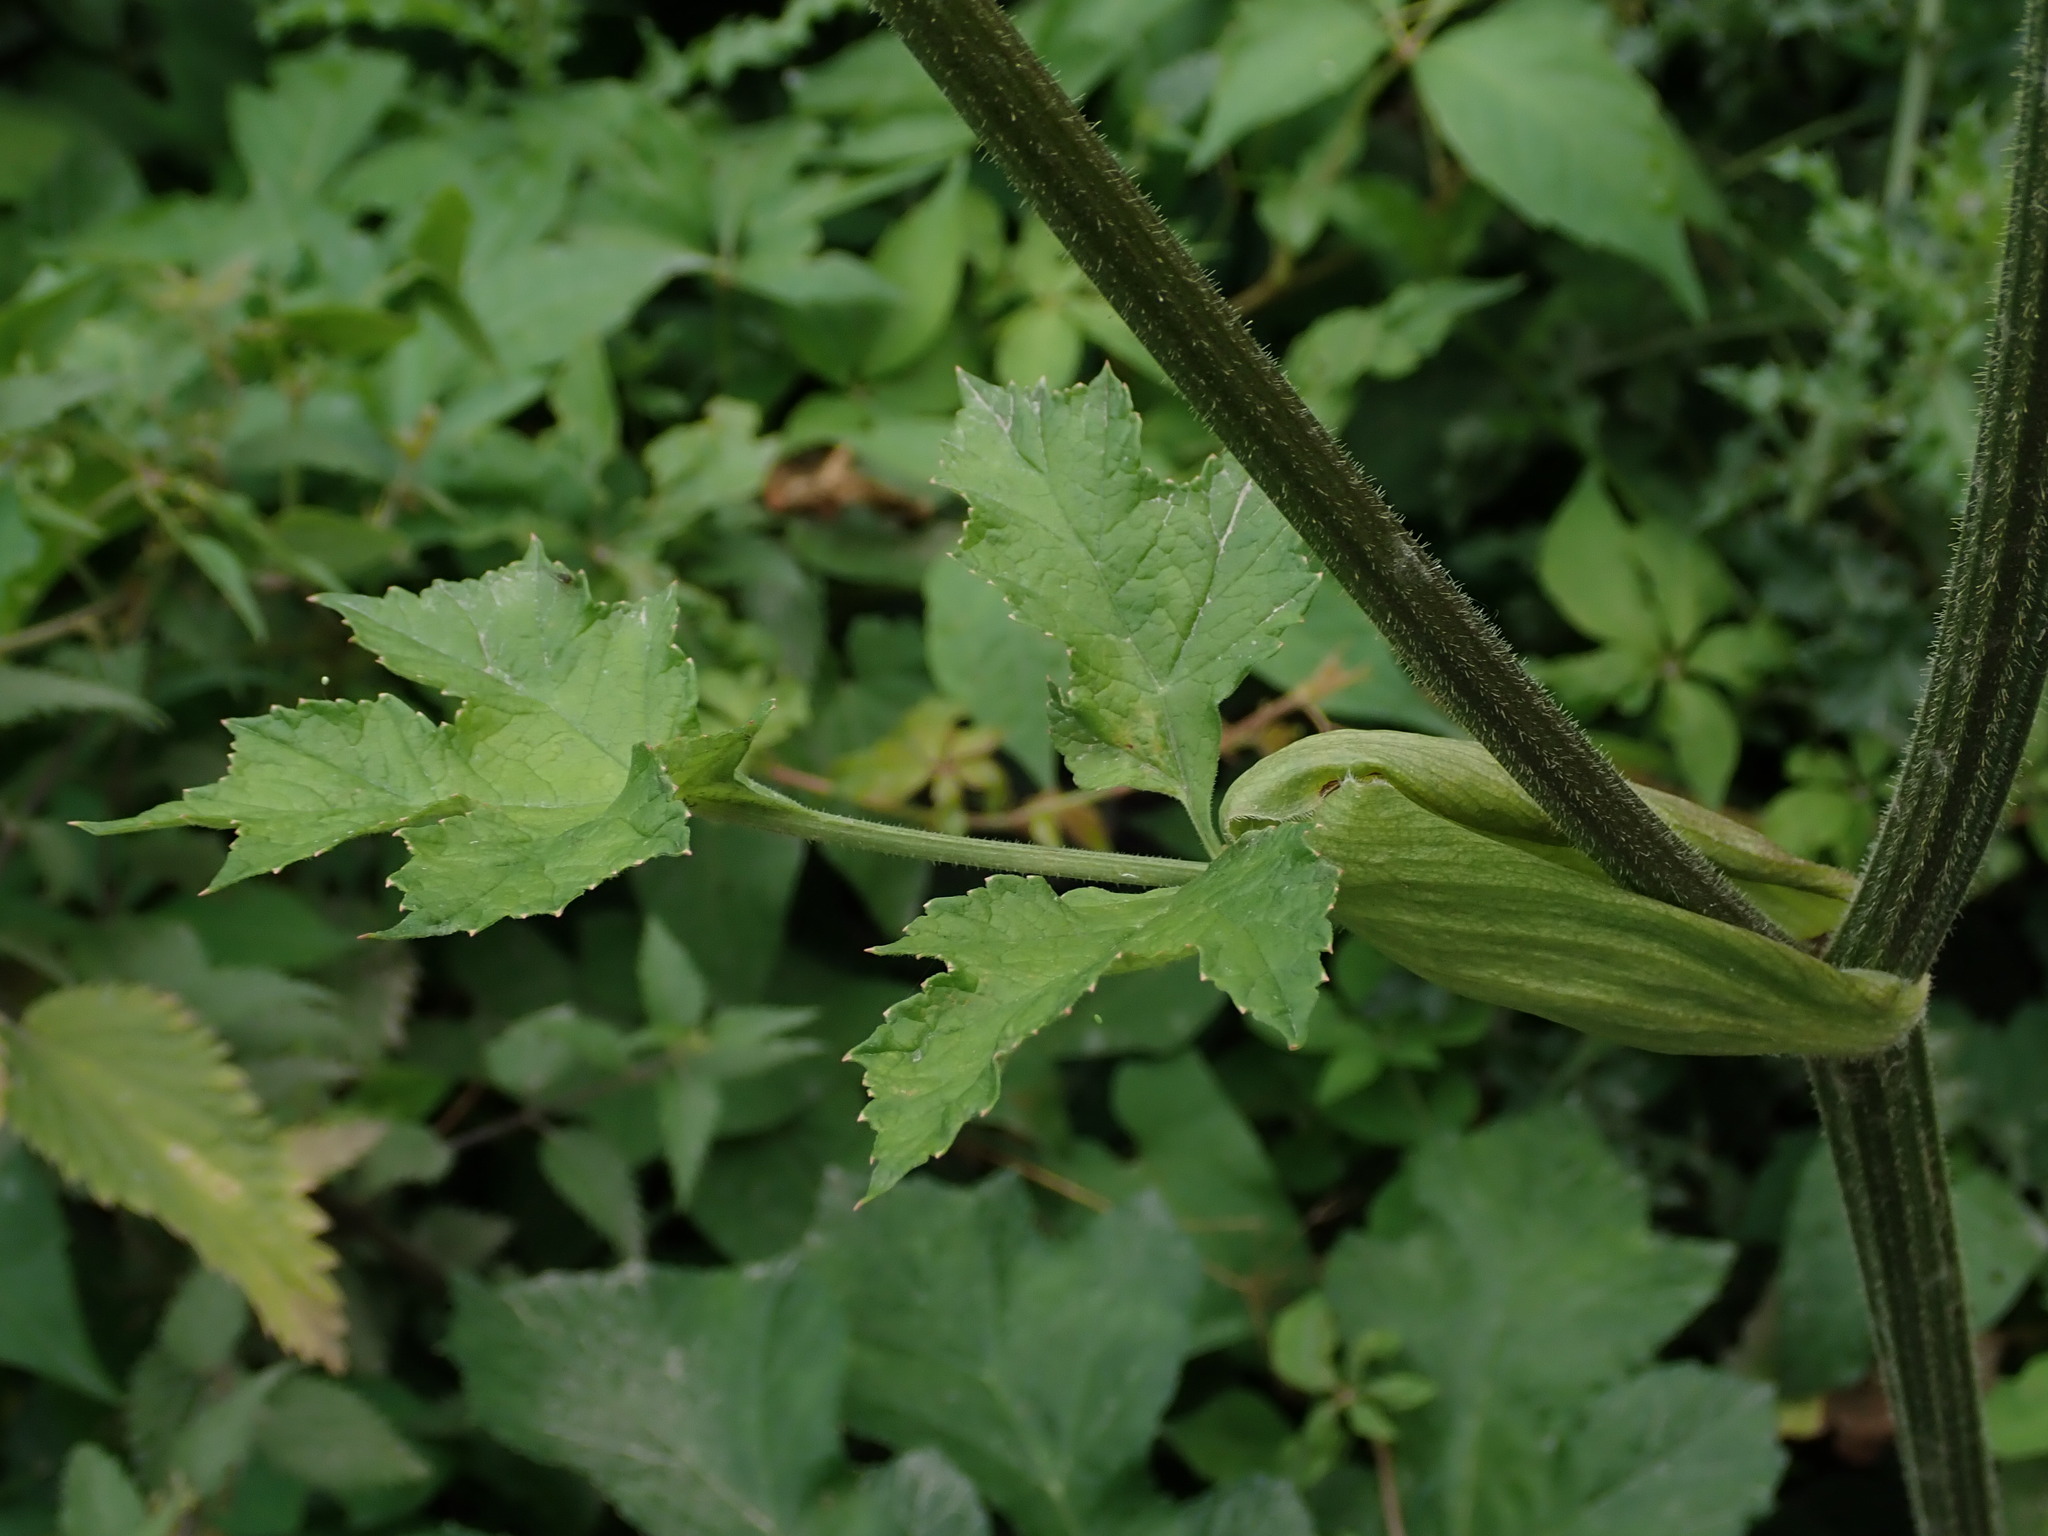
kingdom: Plantae
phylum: Tracheophyta
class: Magnoliopsida
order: Apiales
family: Apiaceae
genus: Heracleum
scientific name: Heracleum sphondylium
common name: Hogweed
